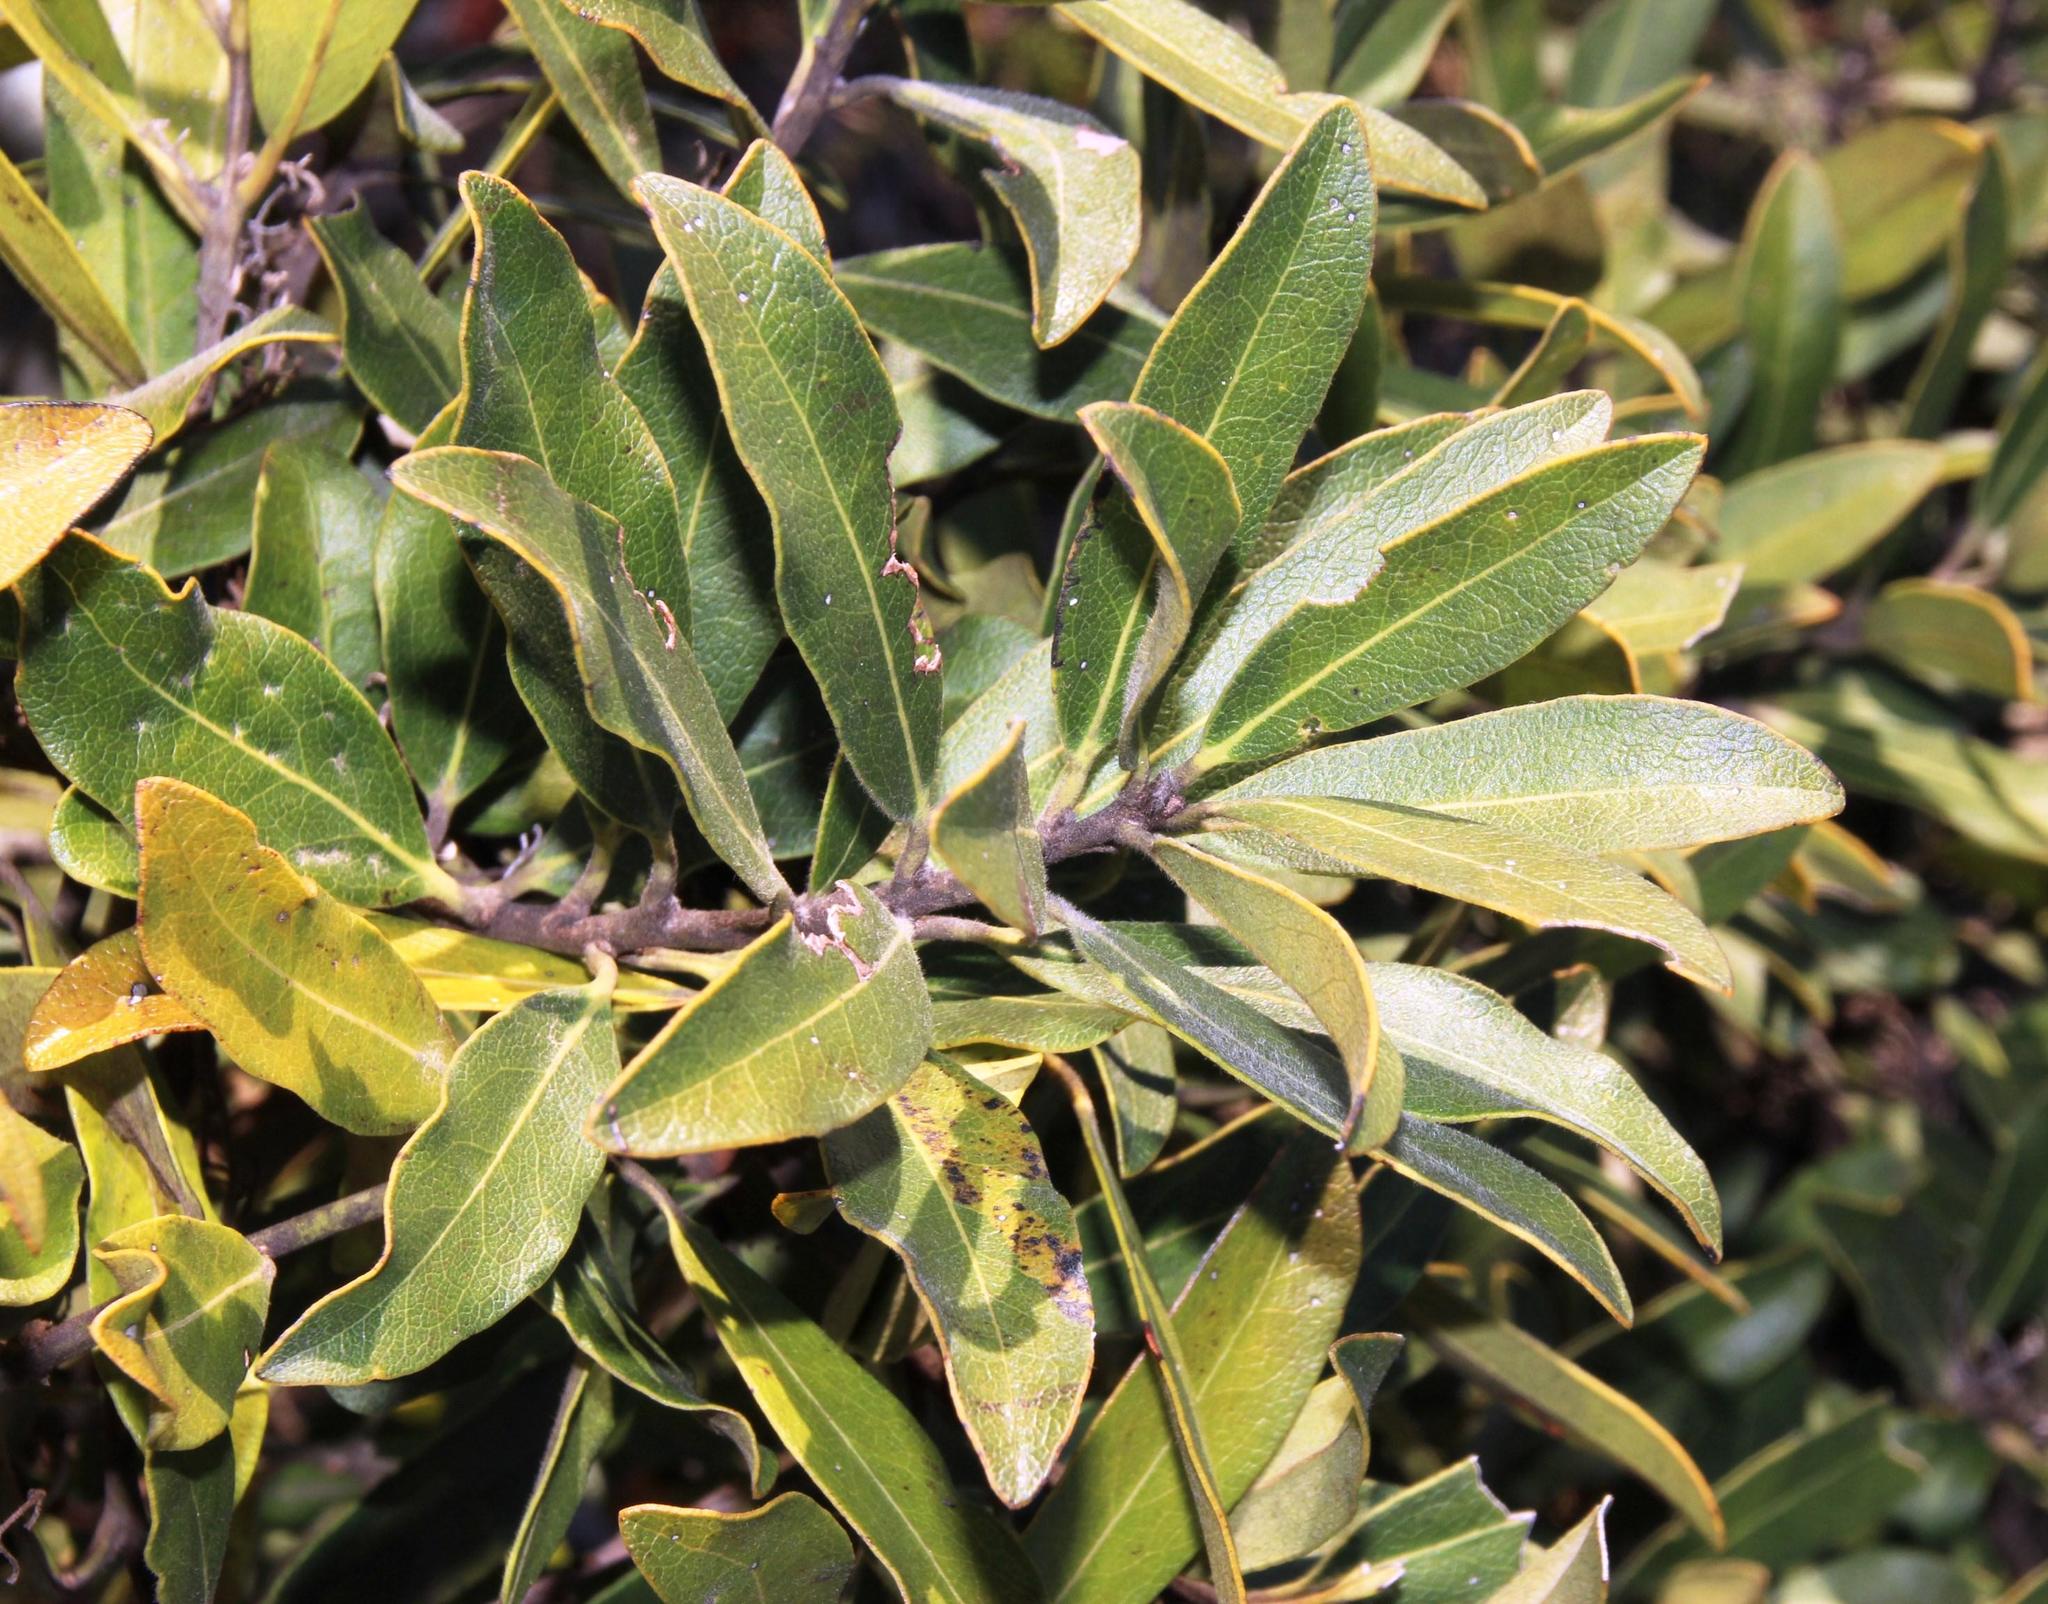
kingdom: Plantae
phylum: Tracheophyta
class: Magnoliopsida
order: Ericales
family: Ebenaceae
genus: Euclea
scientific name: Euclea natalensis
